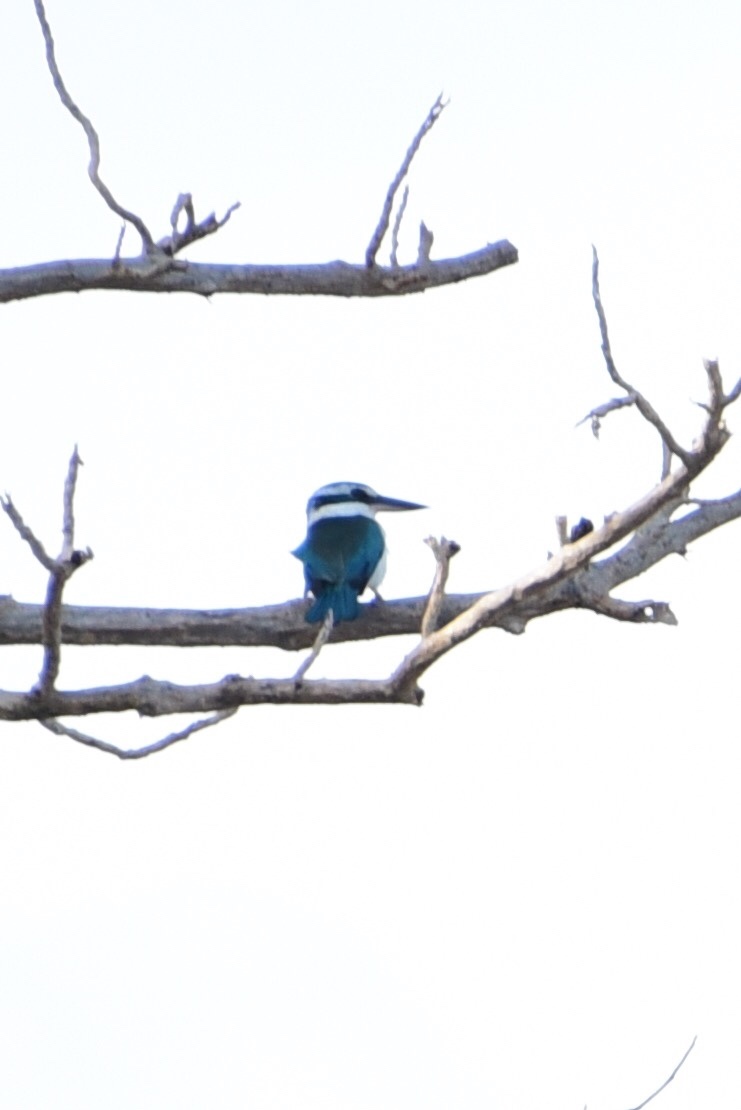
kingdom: Animalia
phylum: Chordata
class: Aves
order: Coraciiformes
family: Alcedinidae
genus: Todiramphus
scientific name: Todiramphus sacer
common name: Pacific kingfisher
